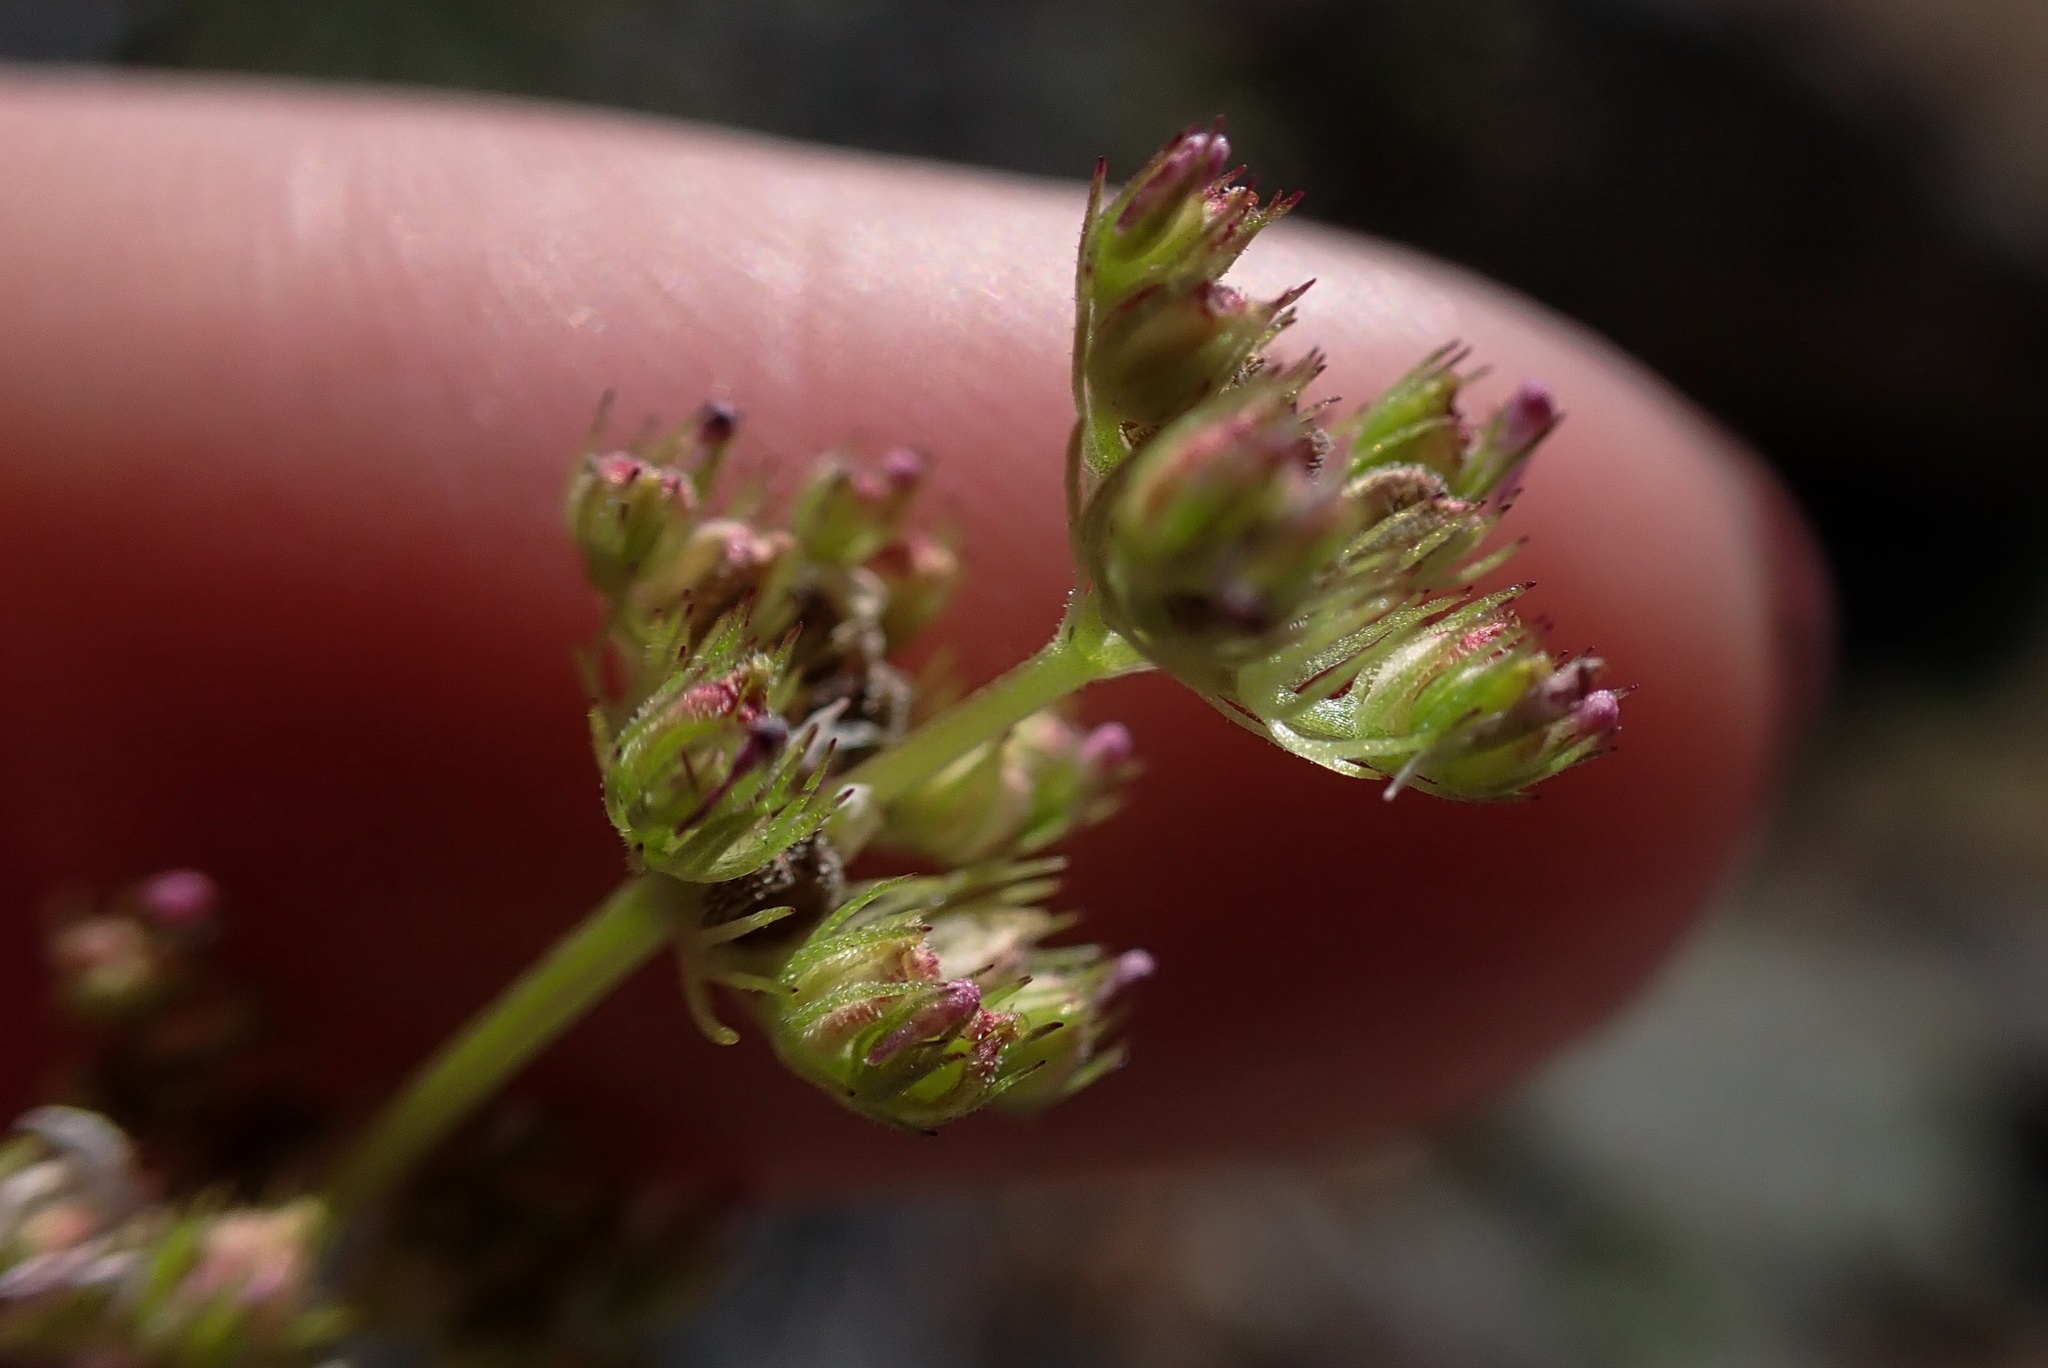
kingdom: Plantae
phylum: Tracheophyta
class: Magnoliopsida
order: Dipsacales
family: Caprifoliaceae
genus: Plectritis
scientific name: Plectritis brachystemon
